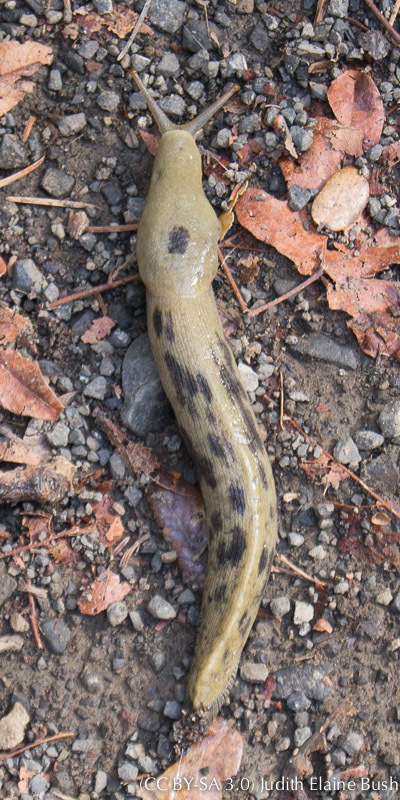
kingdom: Animalia
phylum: Mollusca
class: Gastropoda
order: Stylommatophora
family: Ariolimacidae
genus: Ariolimax
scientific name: Ariolimax buttoni
